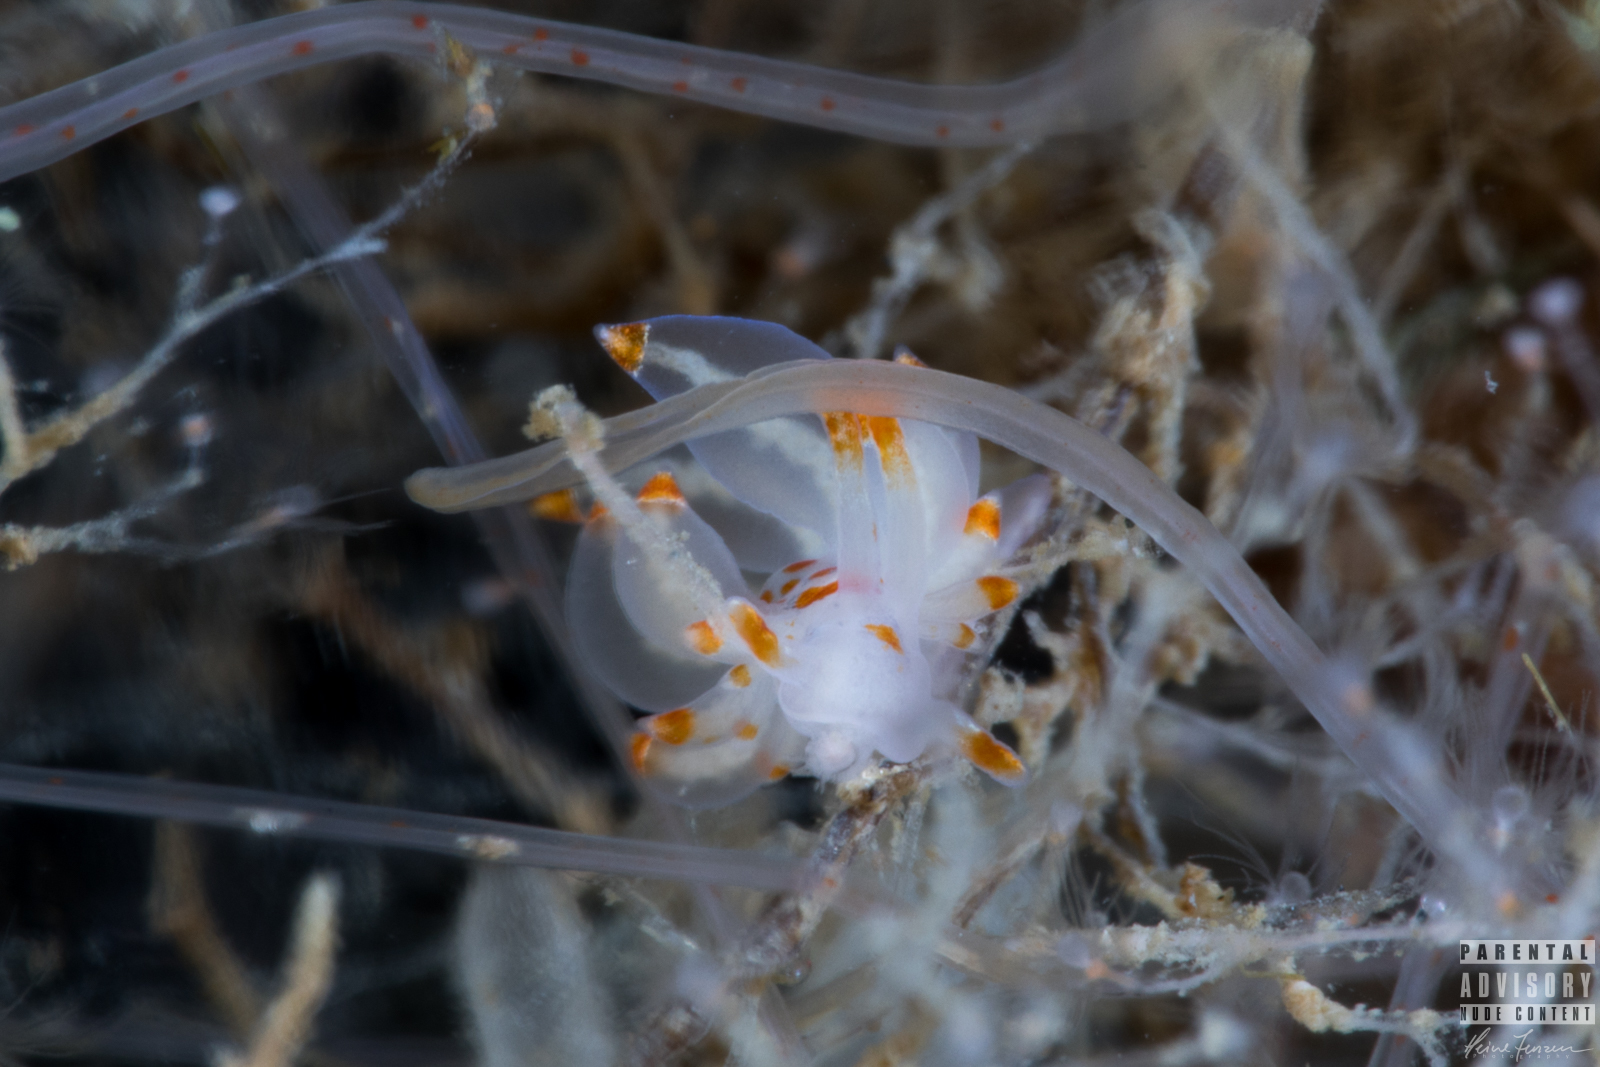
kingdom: Animalia
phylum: Mollusca
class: Gastropoda
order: Nudibranchia
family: Eubranchidae
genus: Amphorina
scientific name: Amphorina farrani
